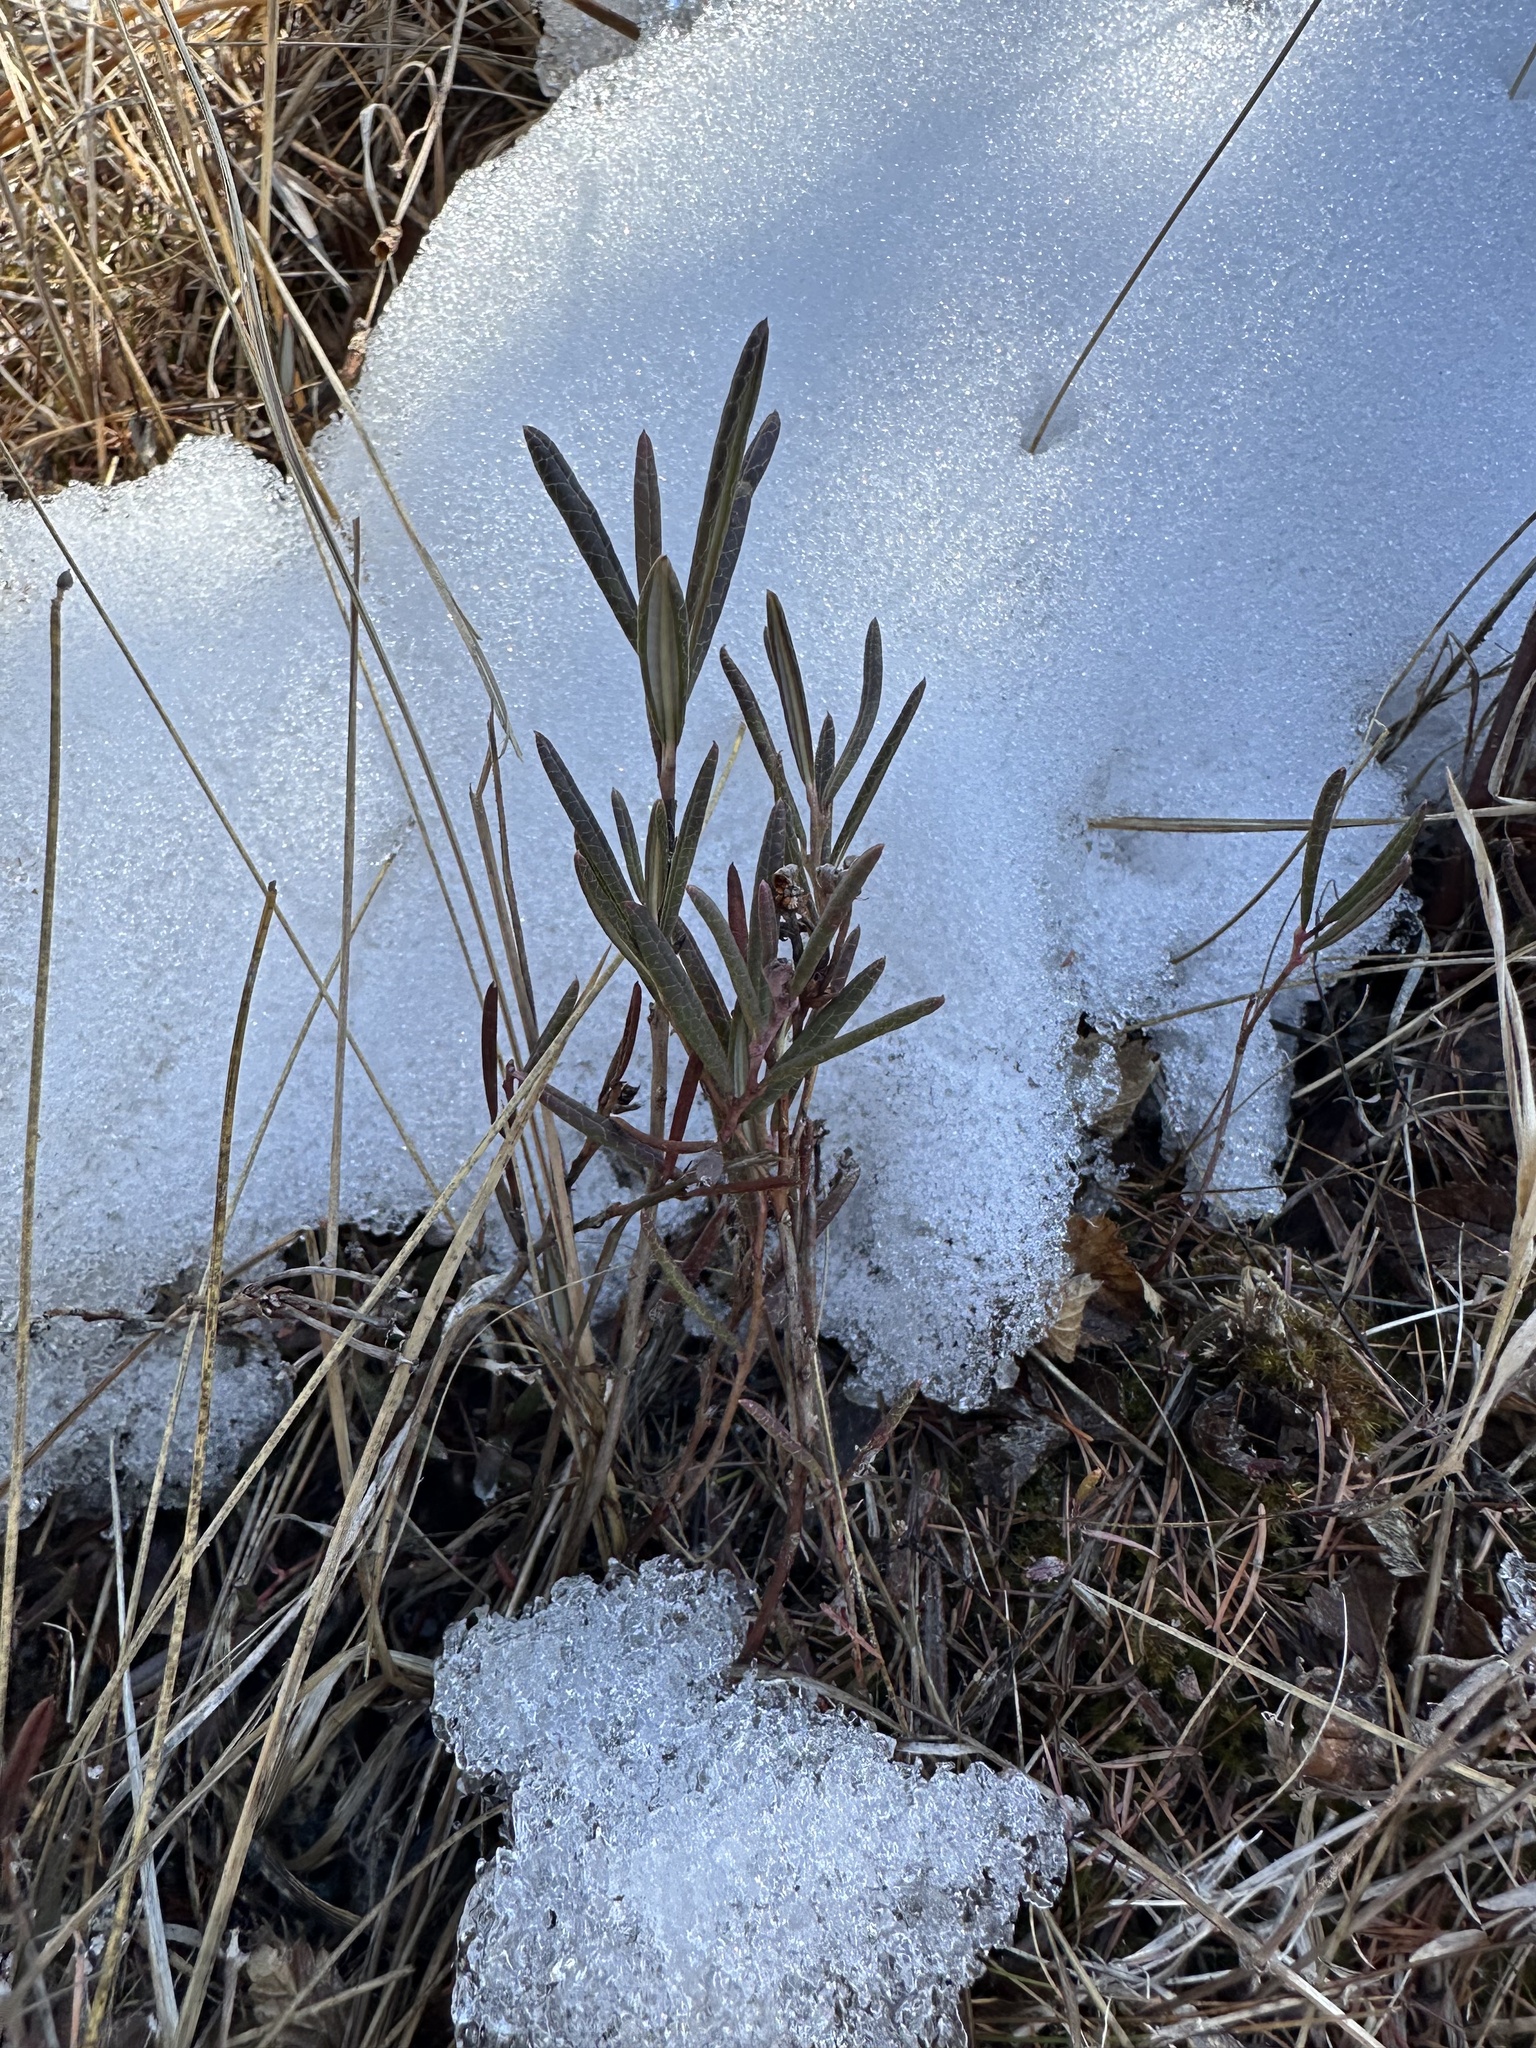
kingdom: Plantae
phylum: Tracheophyta
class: Magnoliopsida
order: Ericales
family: Ericaceae
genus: Andromeda
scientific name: Andromeda polifolia
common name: Bog-rosemary
